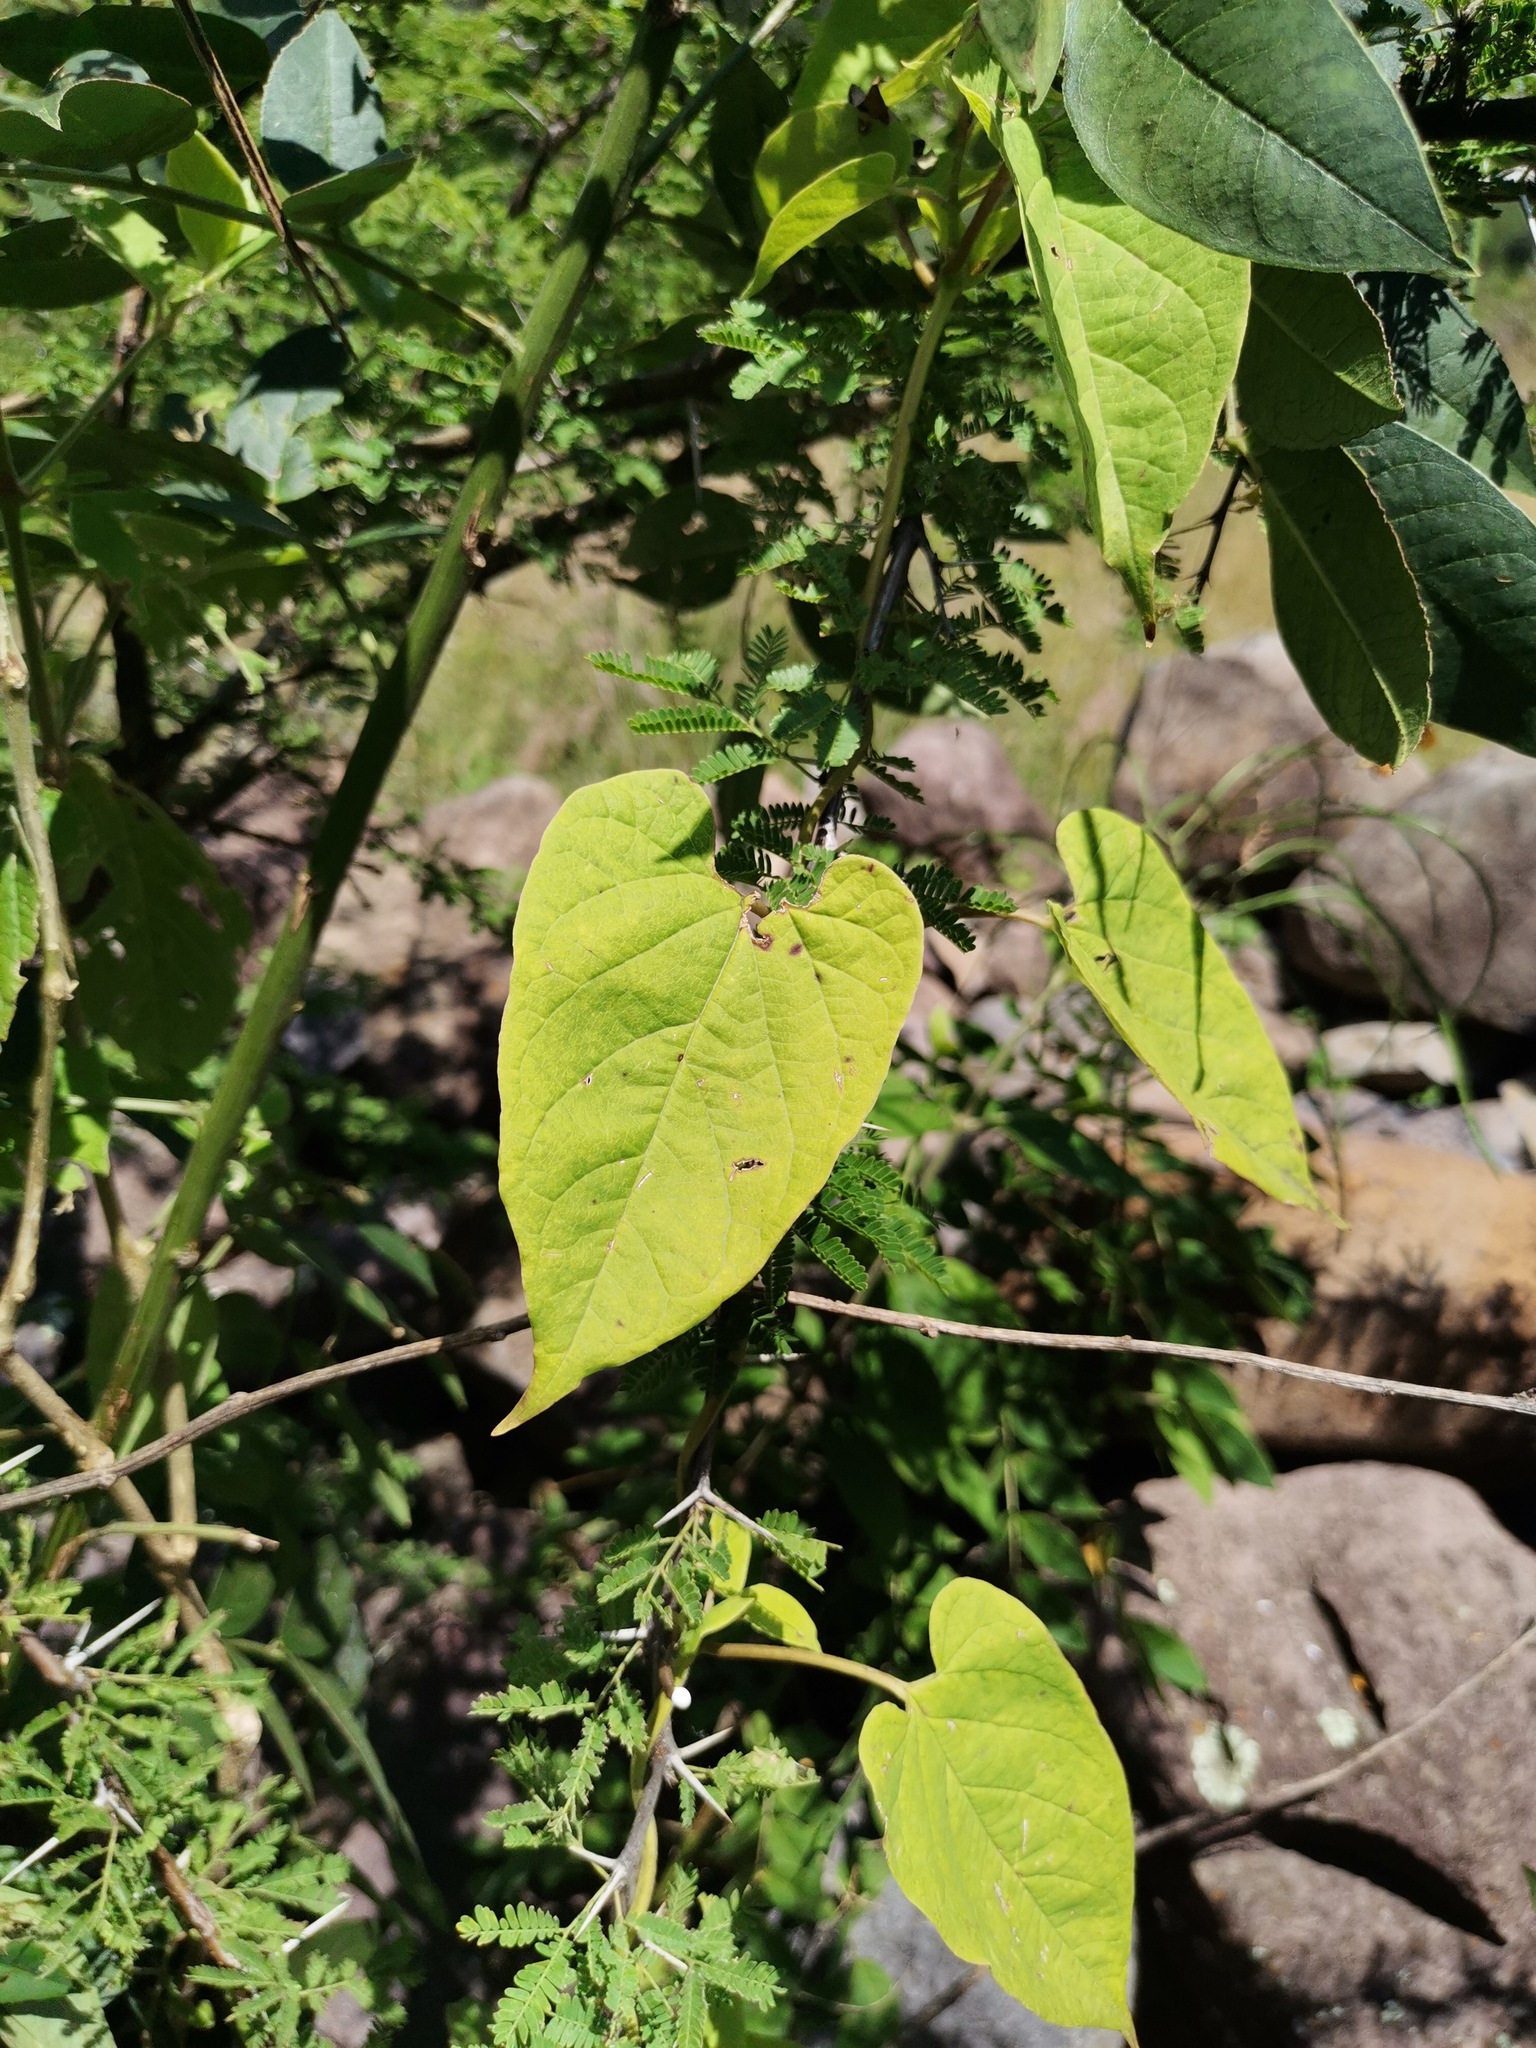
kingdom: Plantae
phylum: Tracheophyta
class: Magnoliopsida
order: Gentianales
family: Apocynaceae
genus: Cynanchum
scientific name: Cynanchum foetidum
